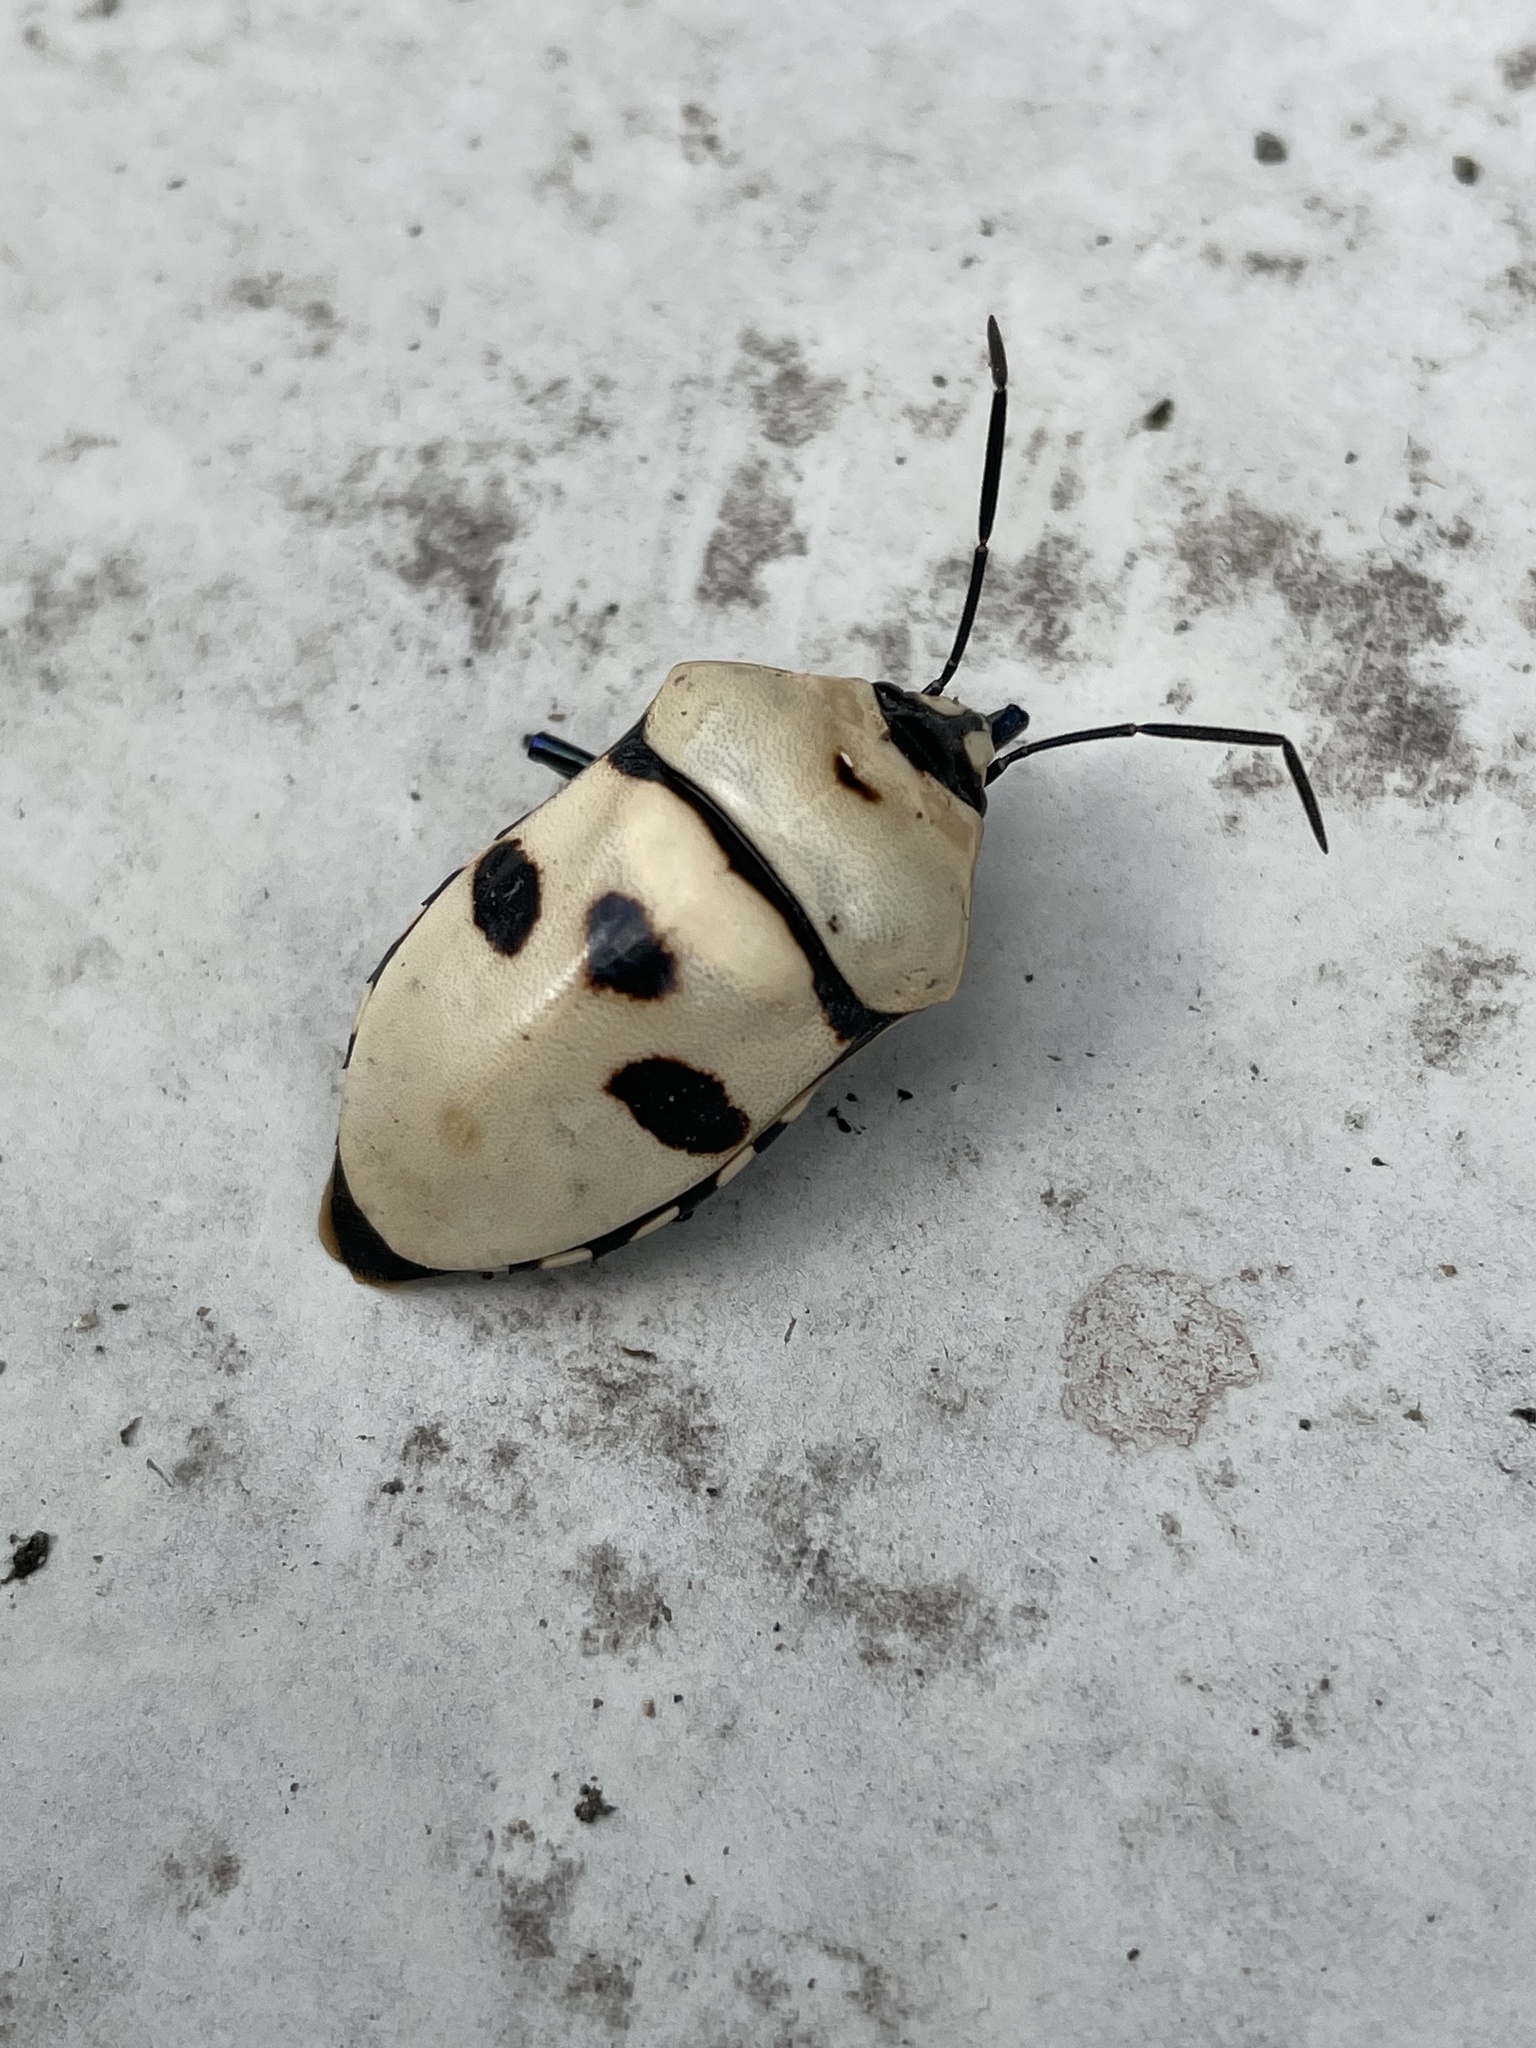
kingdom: Animalia
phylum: Arthropoda
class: Insecta
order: Hemiptera
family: Scutelleridae
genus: Eucorysses
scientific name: Eucorysses grandis
